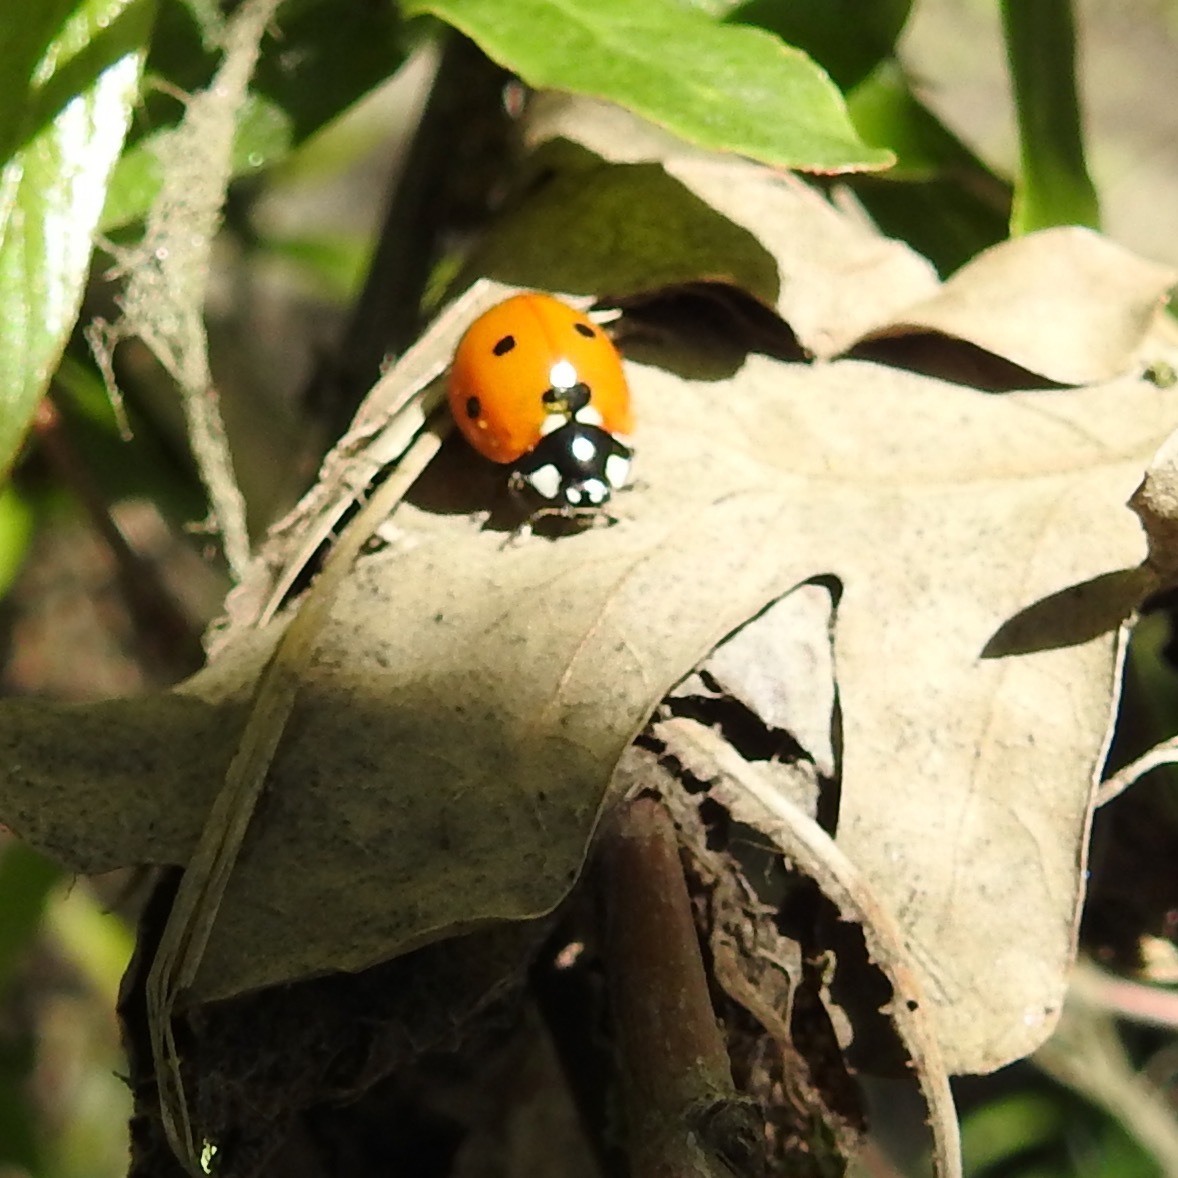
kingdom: Animalia
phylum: Arthropoda
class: Insecta
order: Coleoptera
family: Coccinellidae
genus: Coccinella
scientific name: Coccinella septempunctata
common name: Sevenspotted lady beetle
